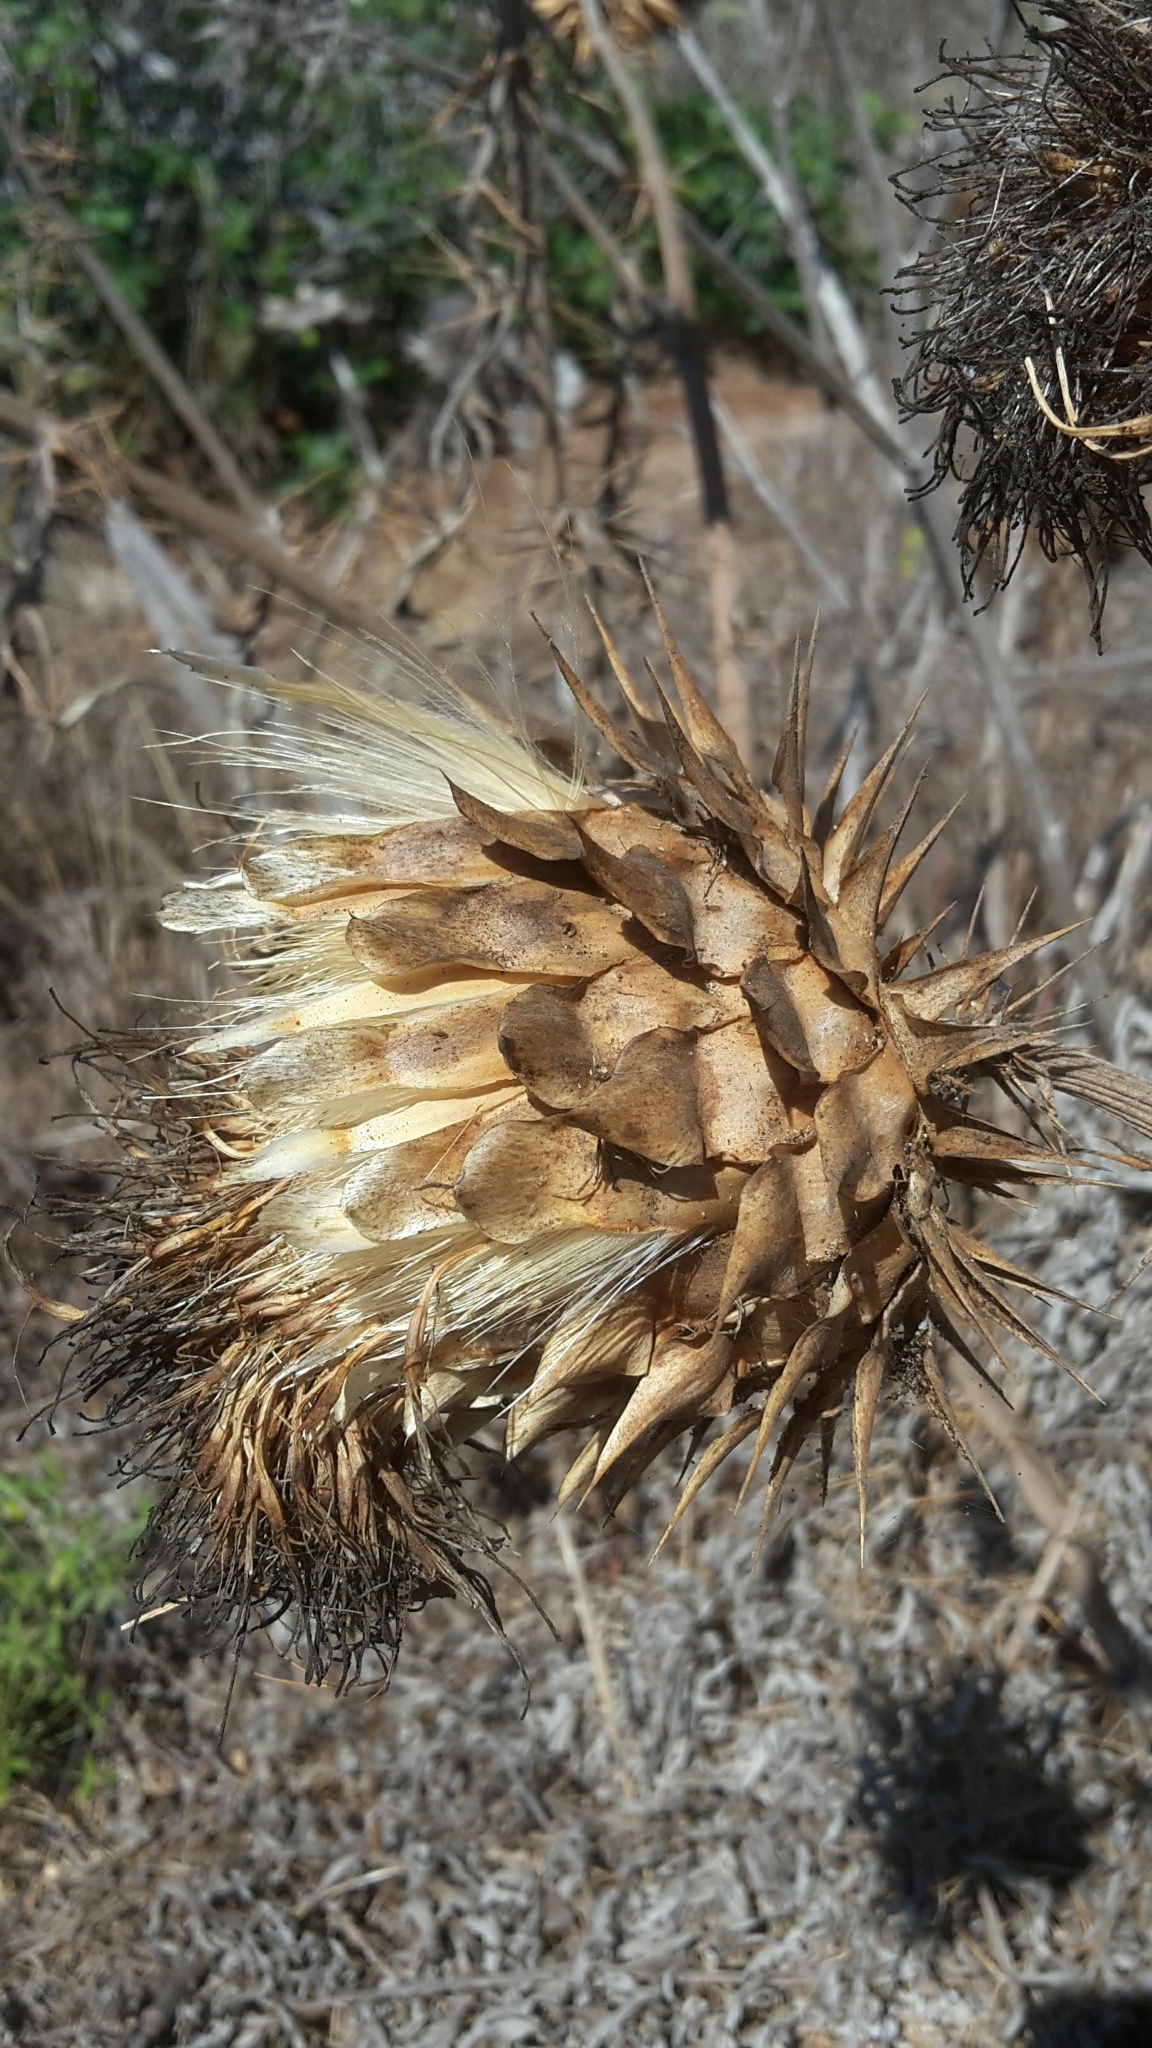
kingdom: Plantae
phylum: Tracheophyta
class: Magnoliopsida
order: Asterales
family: Asteraceae
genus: Cynara
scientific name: Cynara cardunculus
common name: Globe artichoke
